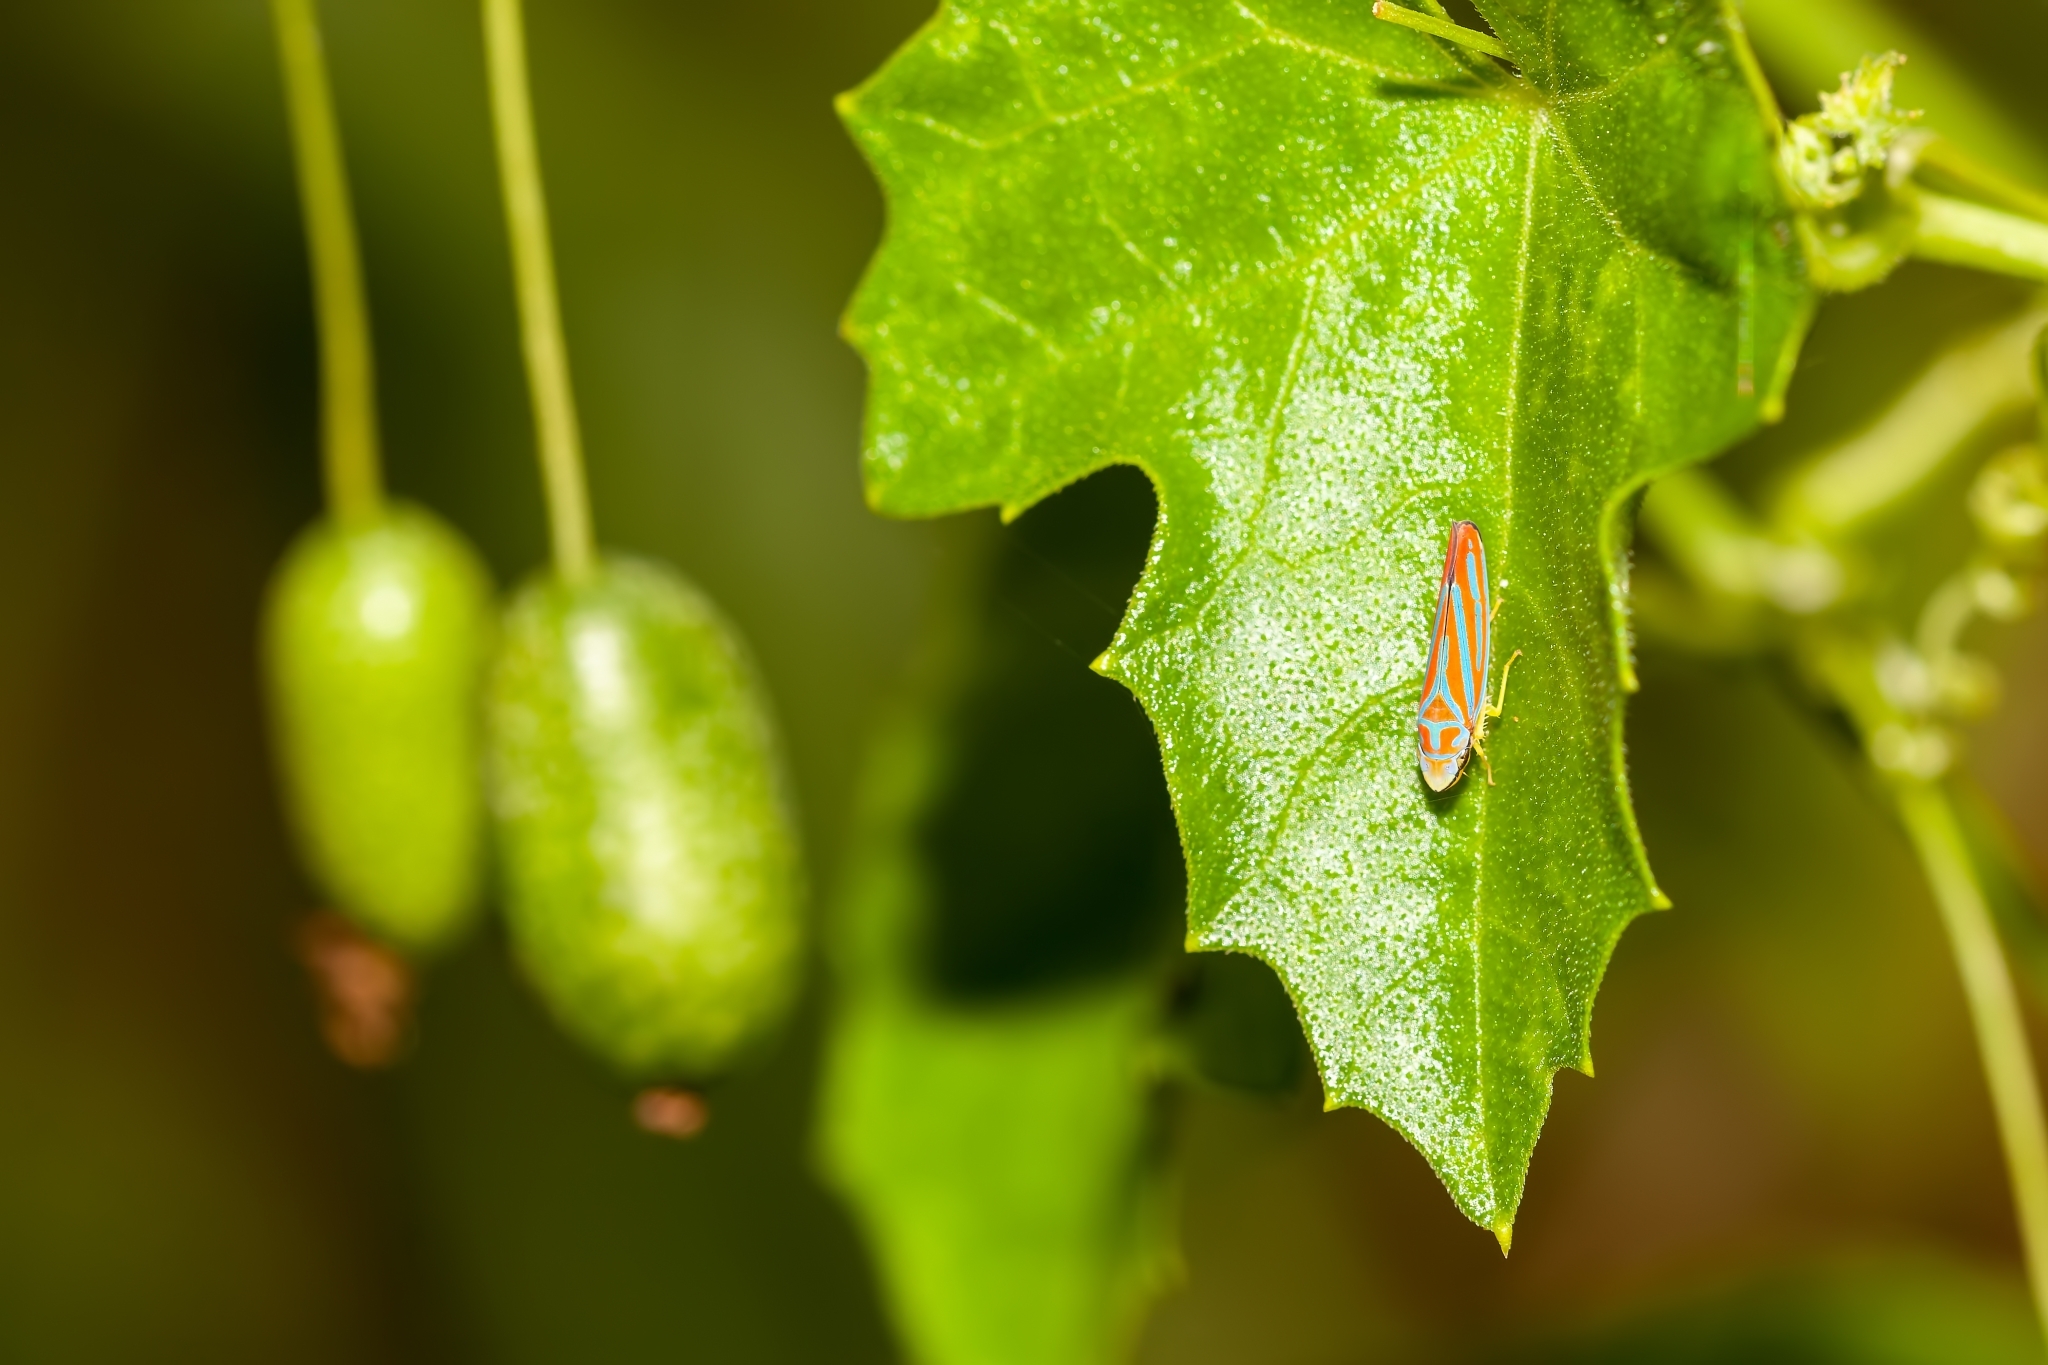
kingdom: Animalia
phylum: Arthropoda
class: Insecta
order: Hemiptera
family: Cicadellidae
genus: Graphocephala
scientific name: Graphocephala coccinea
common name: Candy-striped leafhopper
